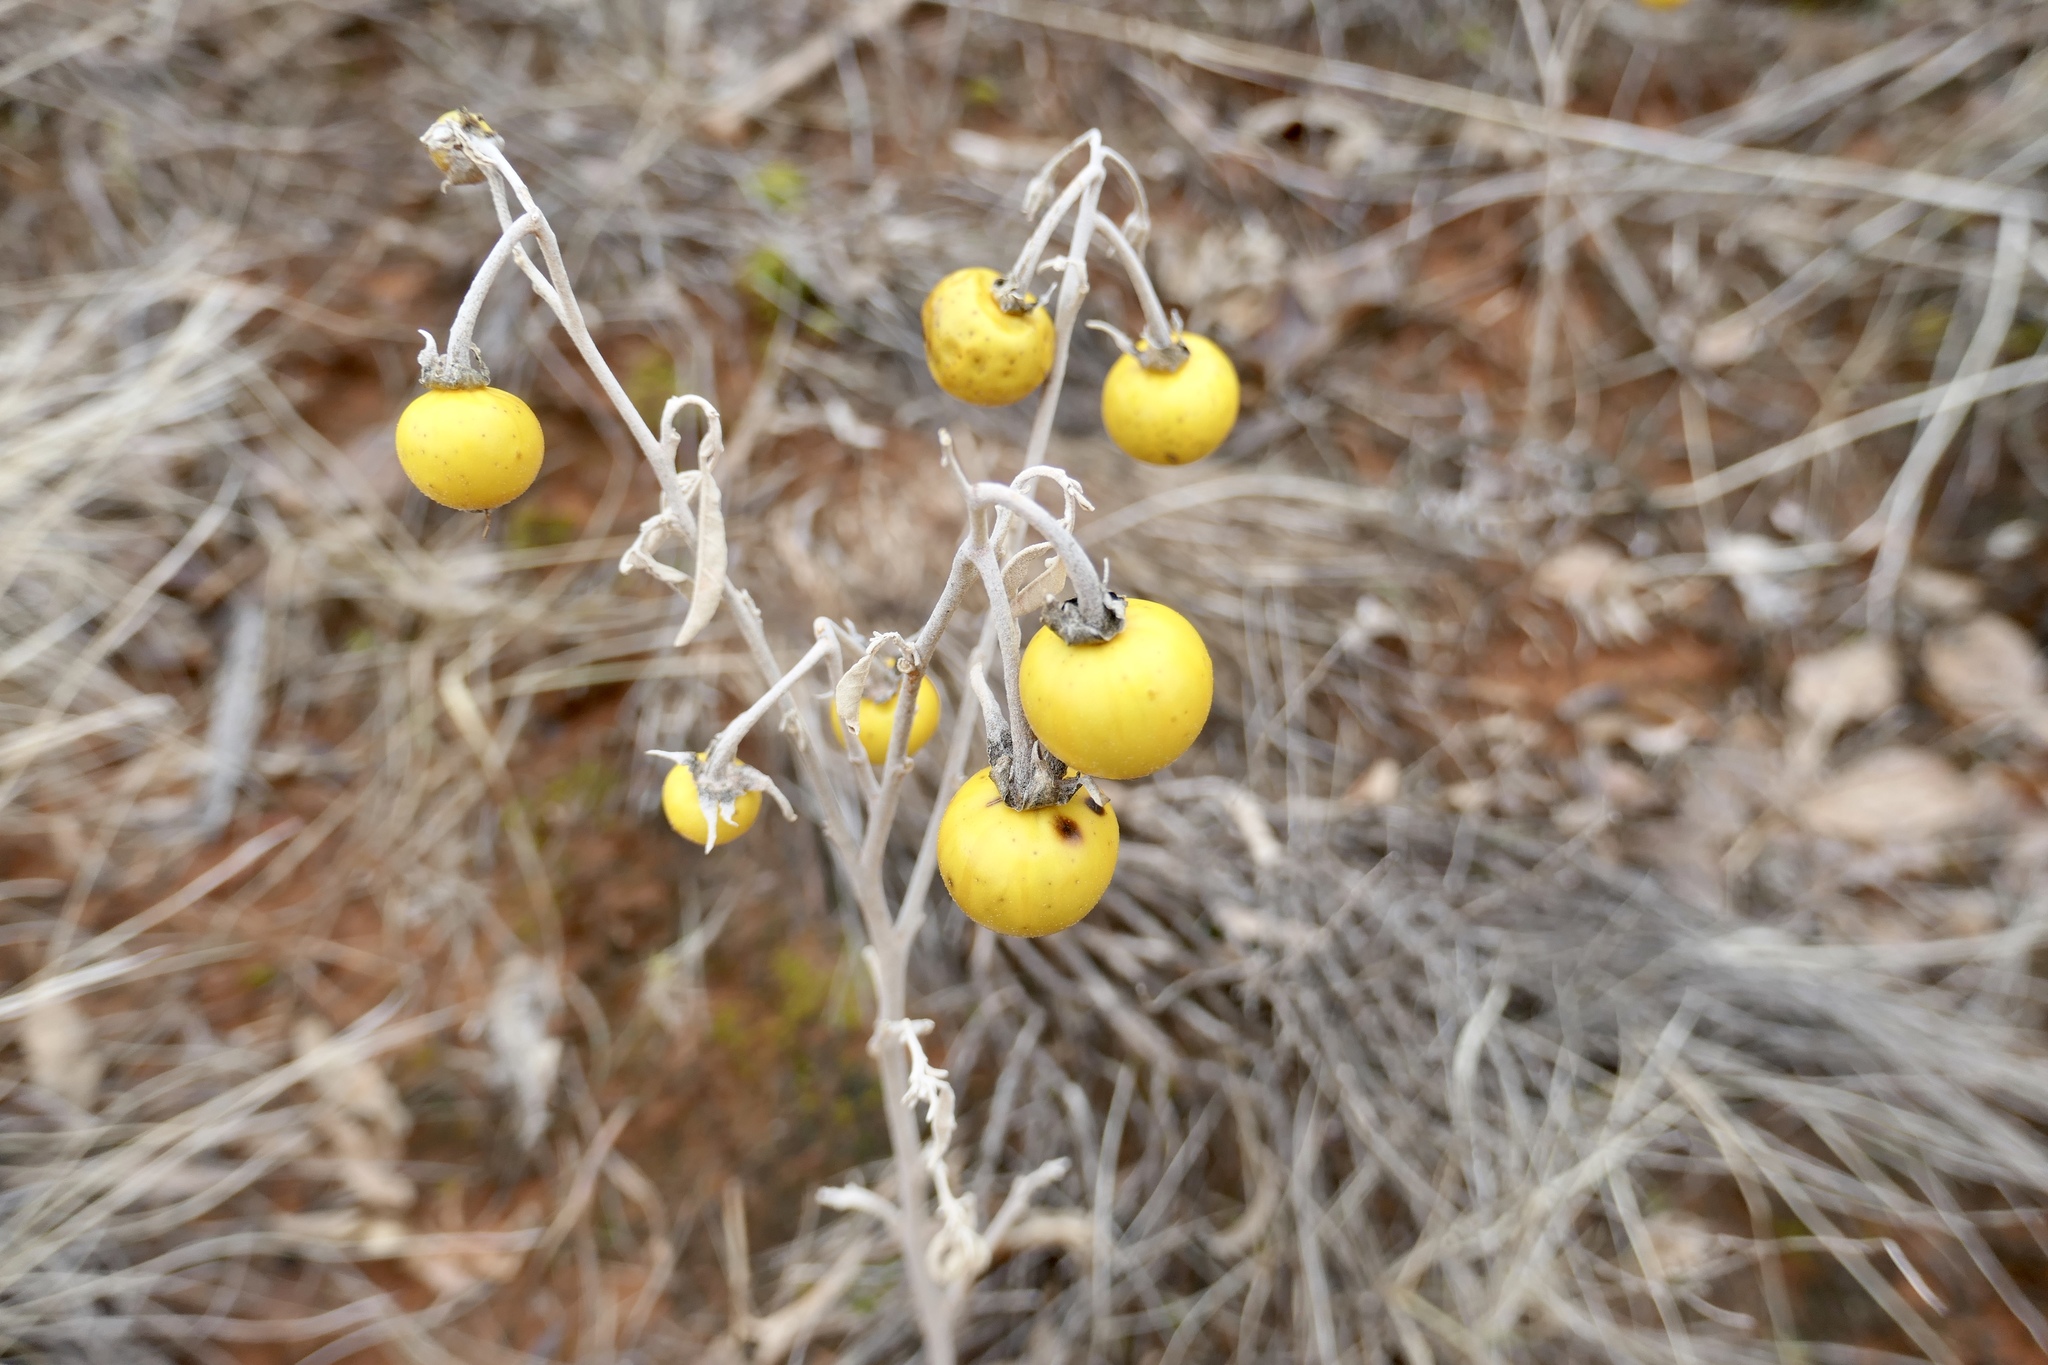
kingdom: Plantae
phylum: Tracheophyta
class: Magnoliopsida
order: Solanales
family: Solanaceae
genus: Solanum
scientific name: Solanum elaeagnifolium
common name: Silverleaf nightshade
